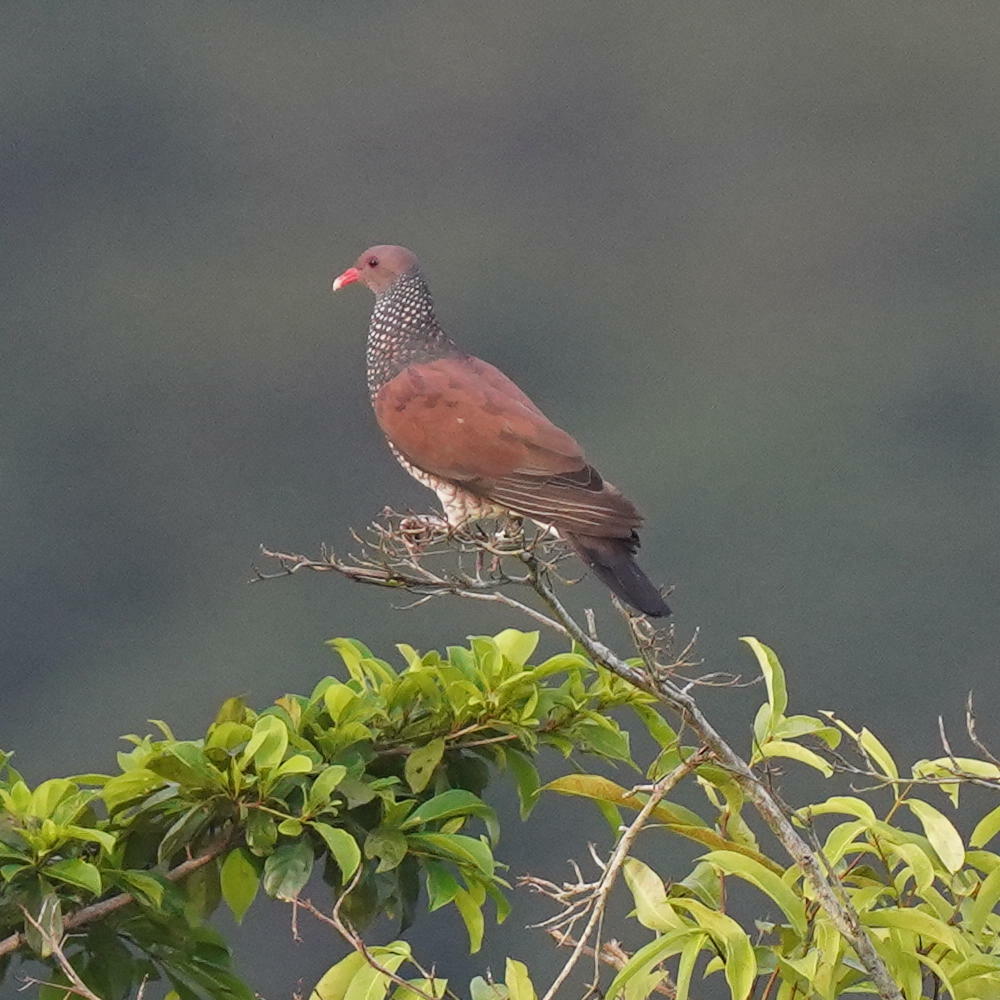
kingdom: Animalia
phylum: Chordata
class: Aves
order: Columbiformes
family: Columbidae
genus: Patagioenas
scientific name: Patagioenas speciosa
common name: Scaled pigeon
